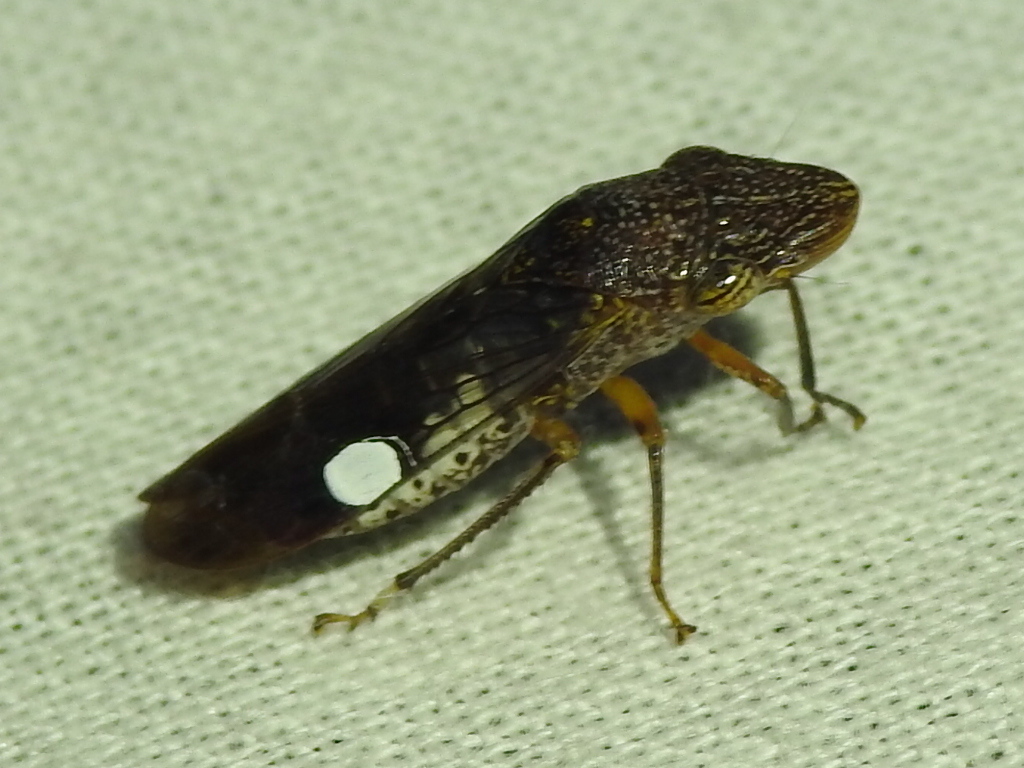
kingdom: Animalia
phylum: Arthropoda
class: Insecta
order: Hemiptera
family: Cicadellidae
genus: Homalodisca
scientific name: Homalodisca vitripennis
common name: Glassy-winged sharpshooter
